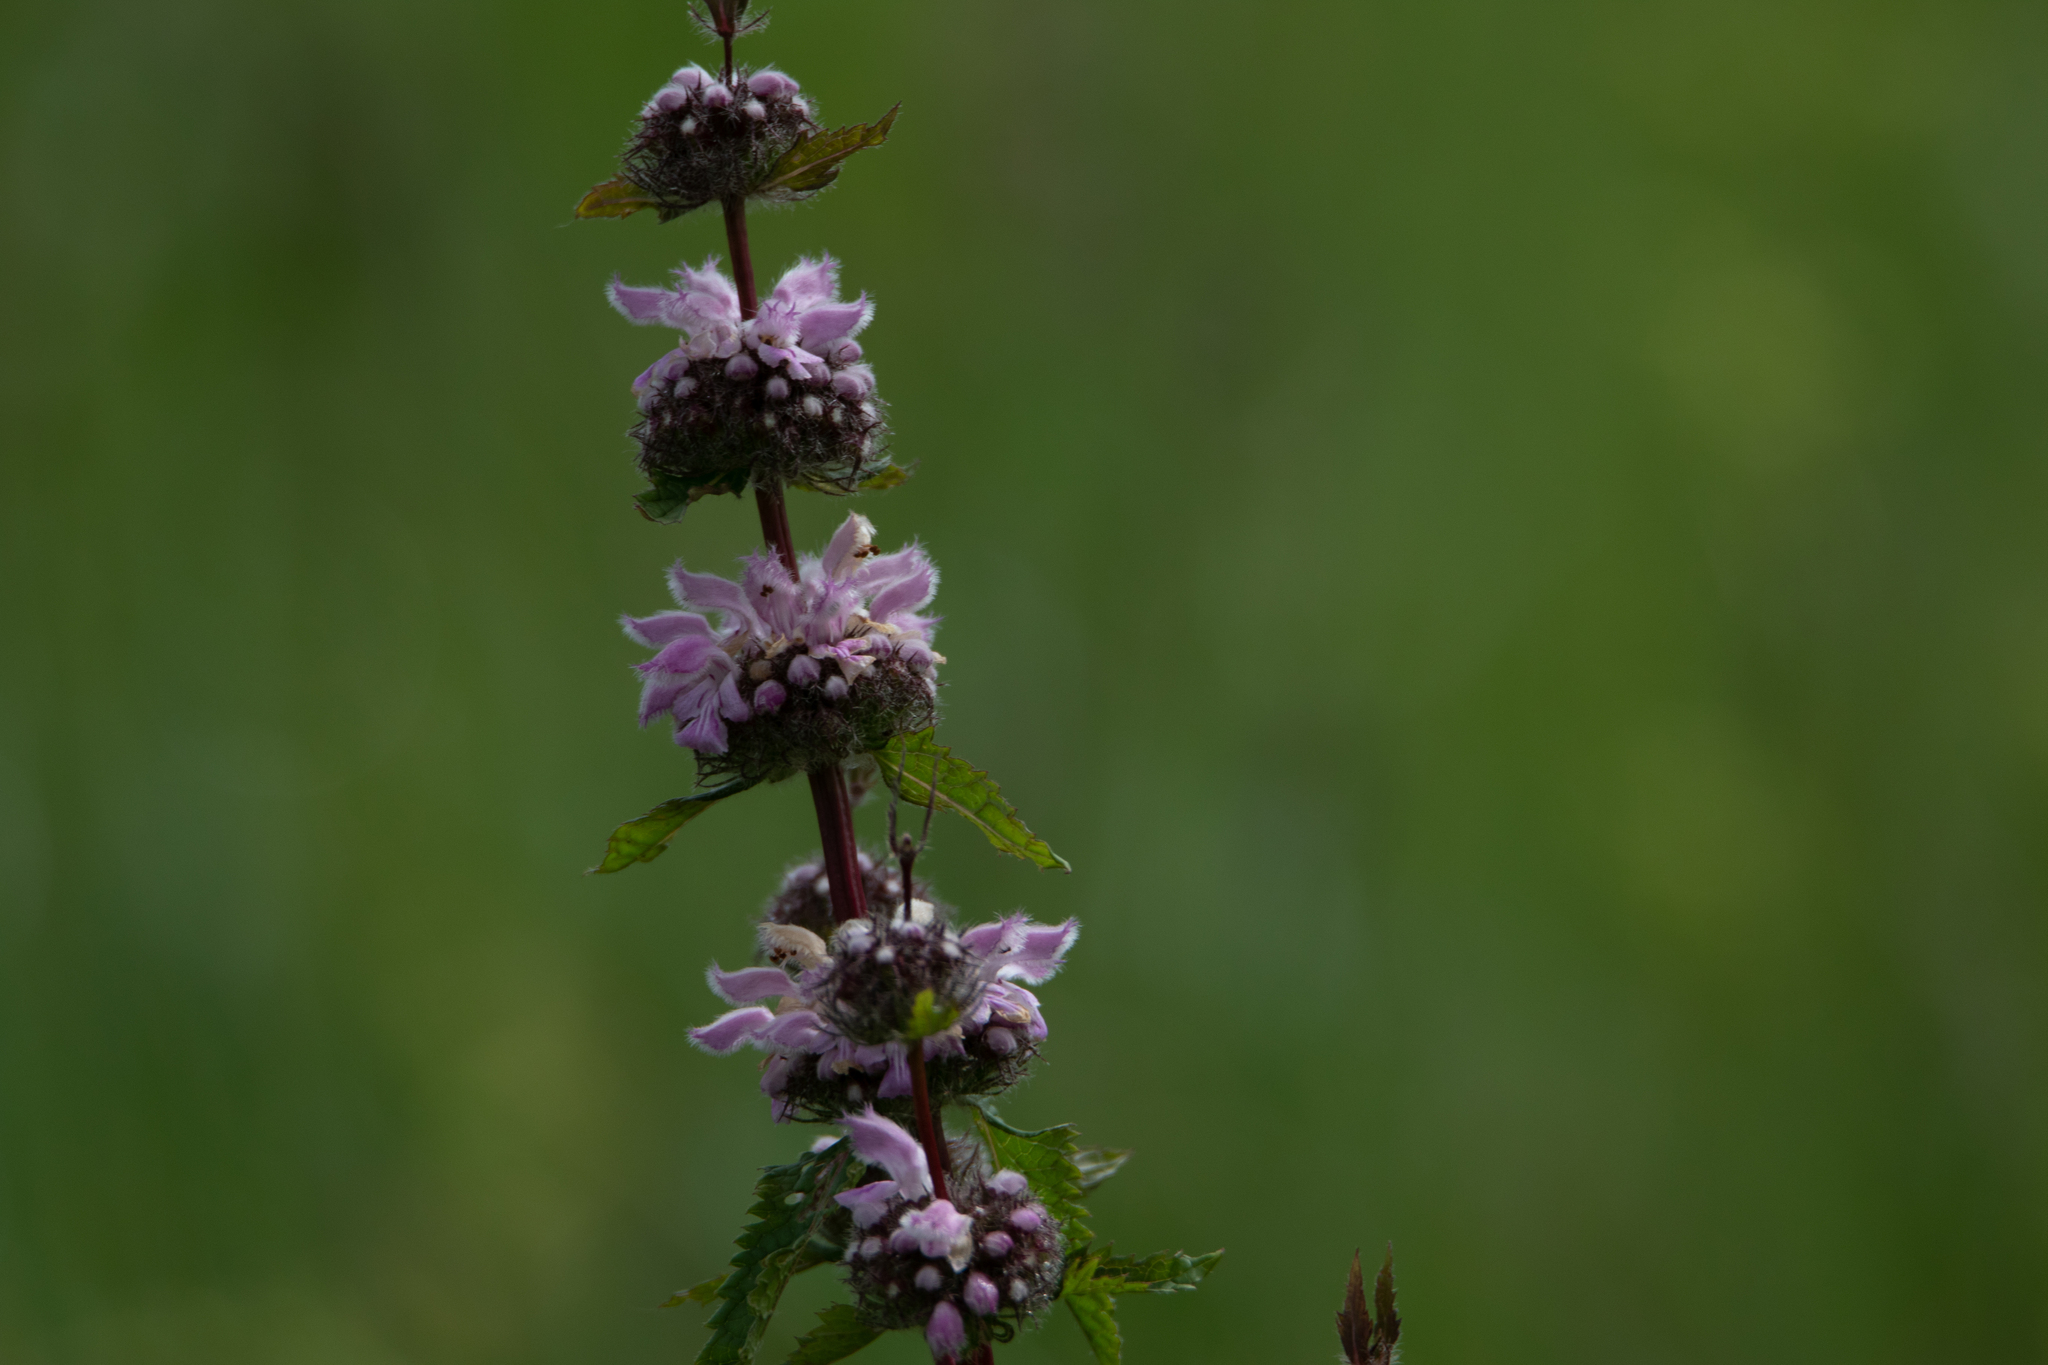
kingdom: Plantae
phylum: Tracheophyta
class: Magnoliopsida
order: Lamiales
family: Lamiaceae
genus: Phlomoides
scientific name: Phlomoides tuberosa
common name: Tuberous jerusalem sage
